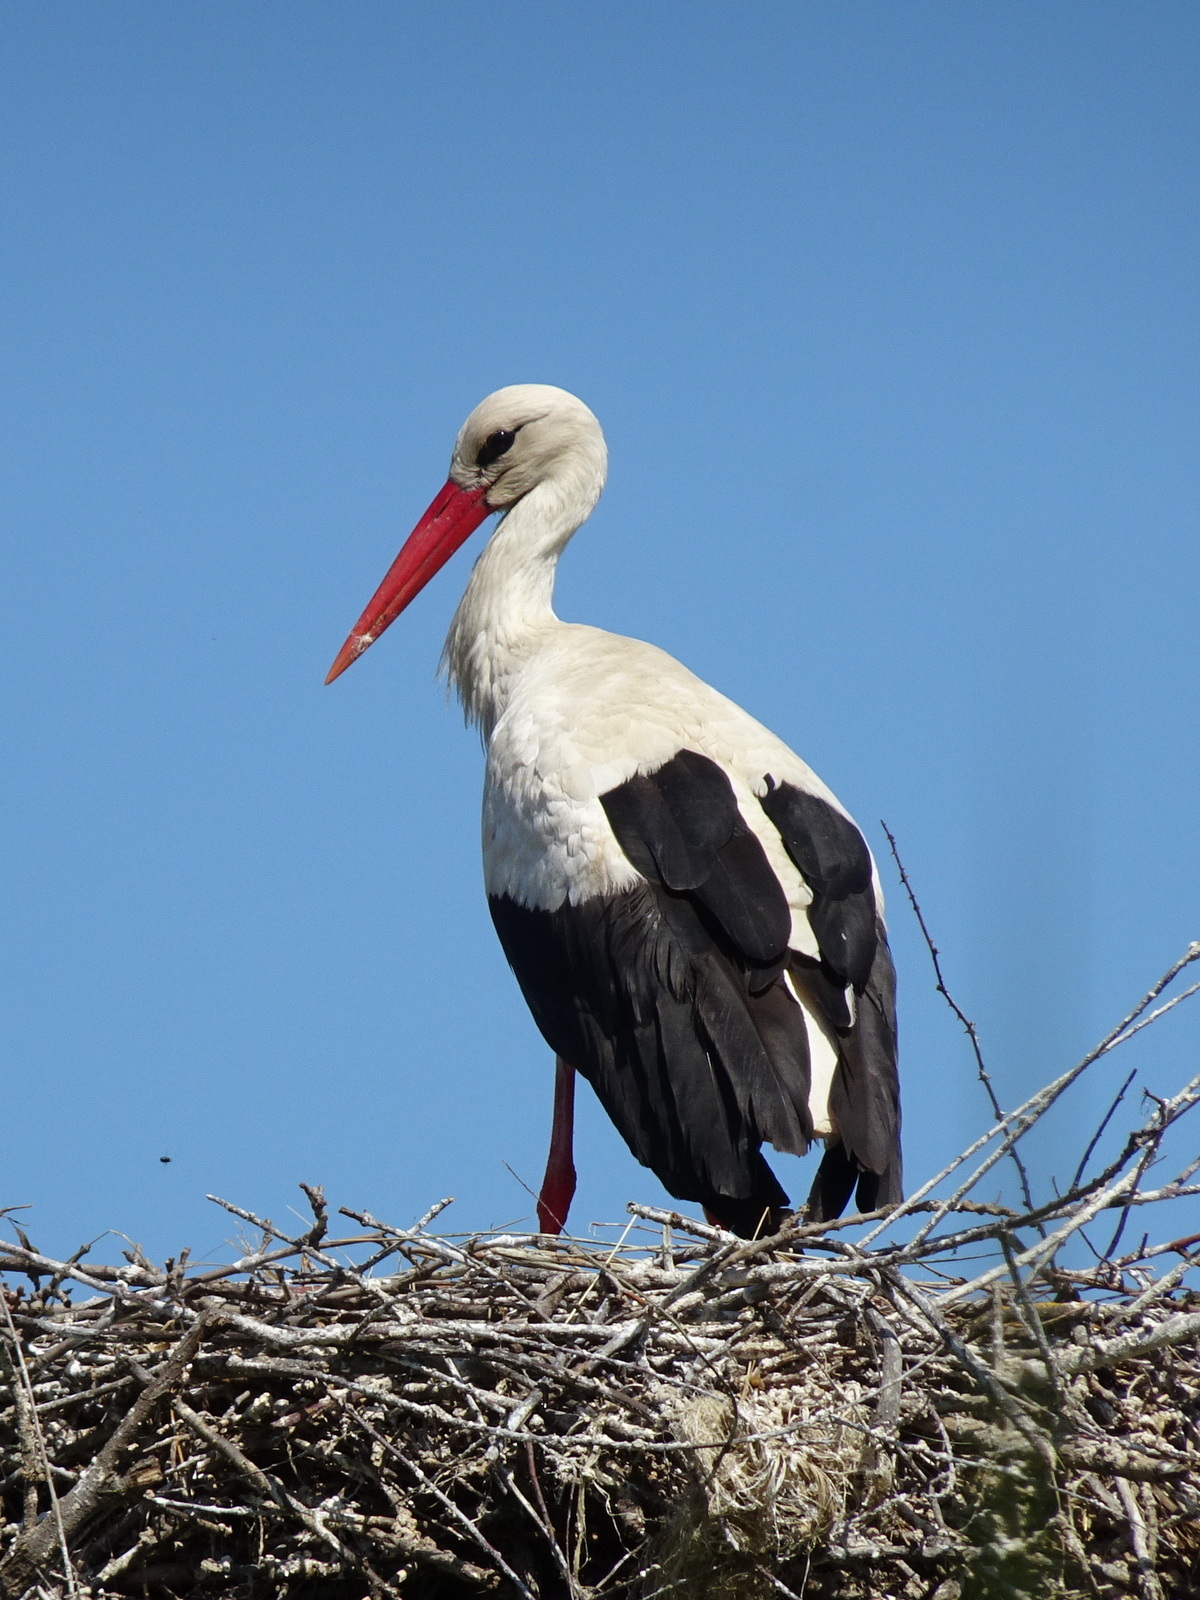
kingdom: Animalia
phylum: Chordata
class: Aves
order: Ciconiiformes
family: Ciconiidae
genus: Ciconia
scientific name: Ciconia ciconia
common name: White stork
